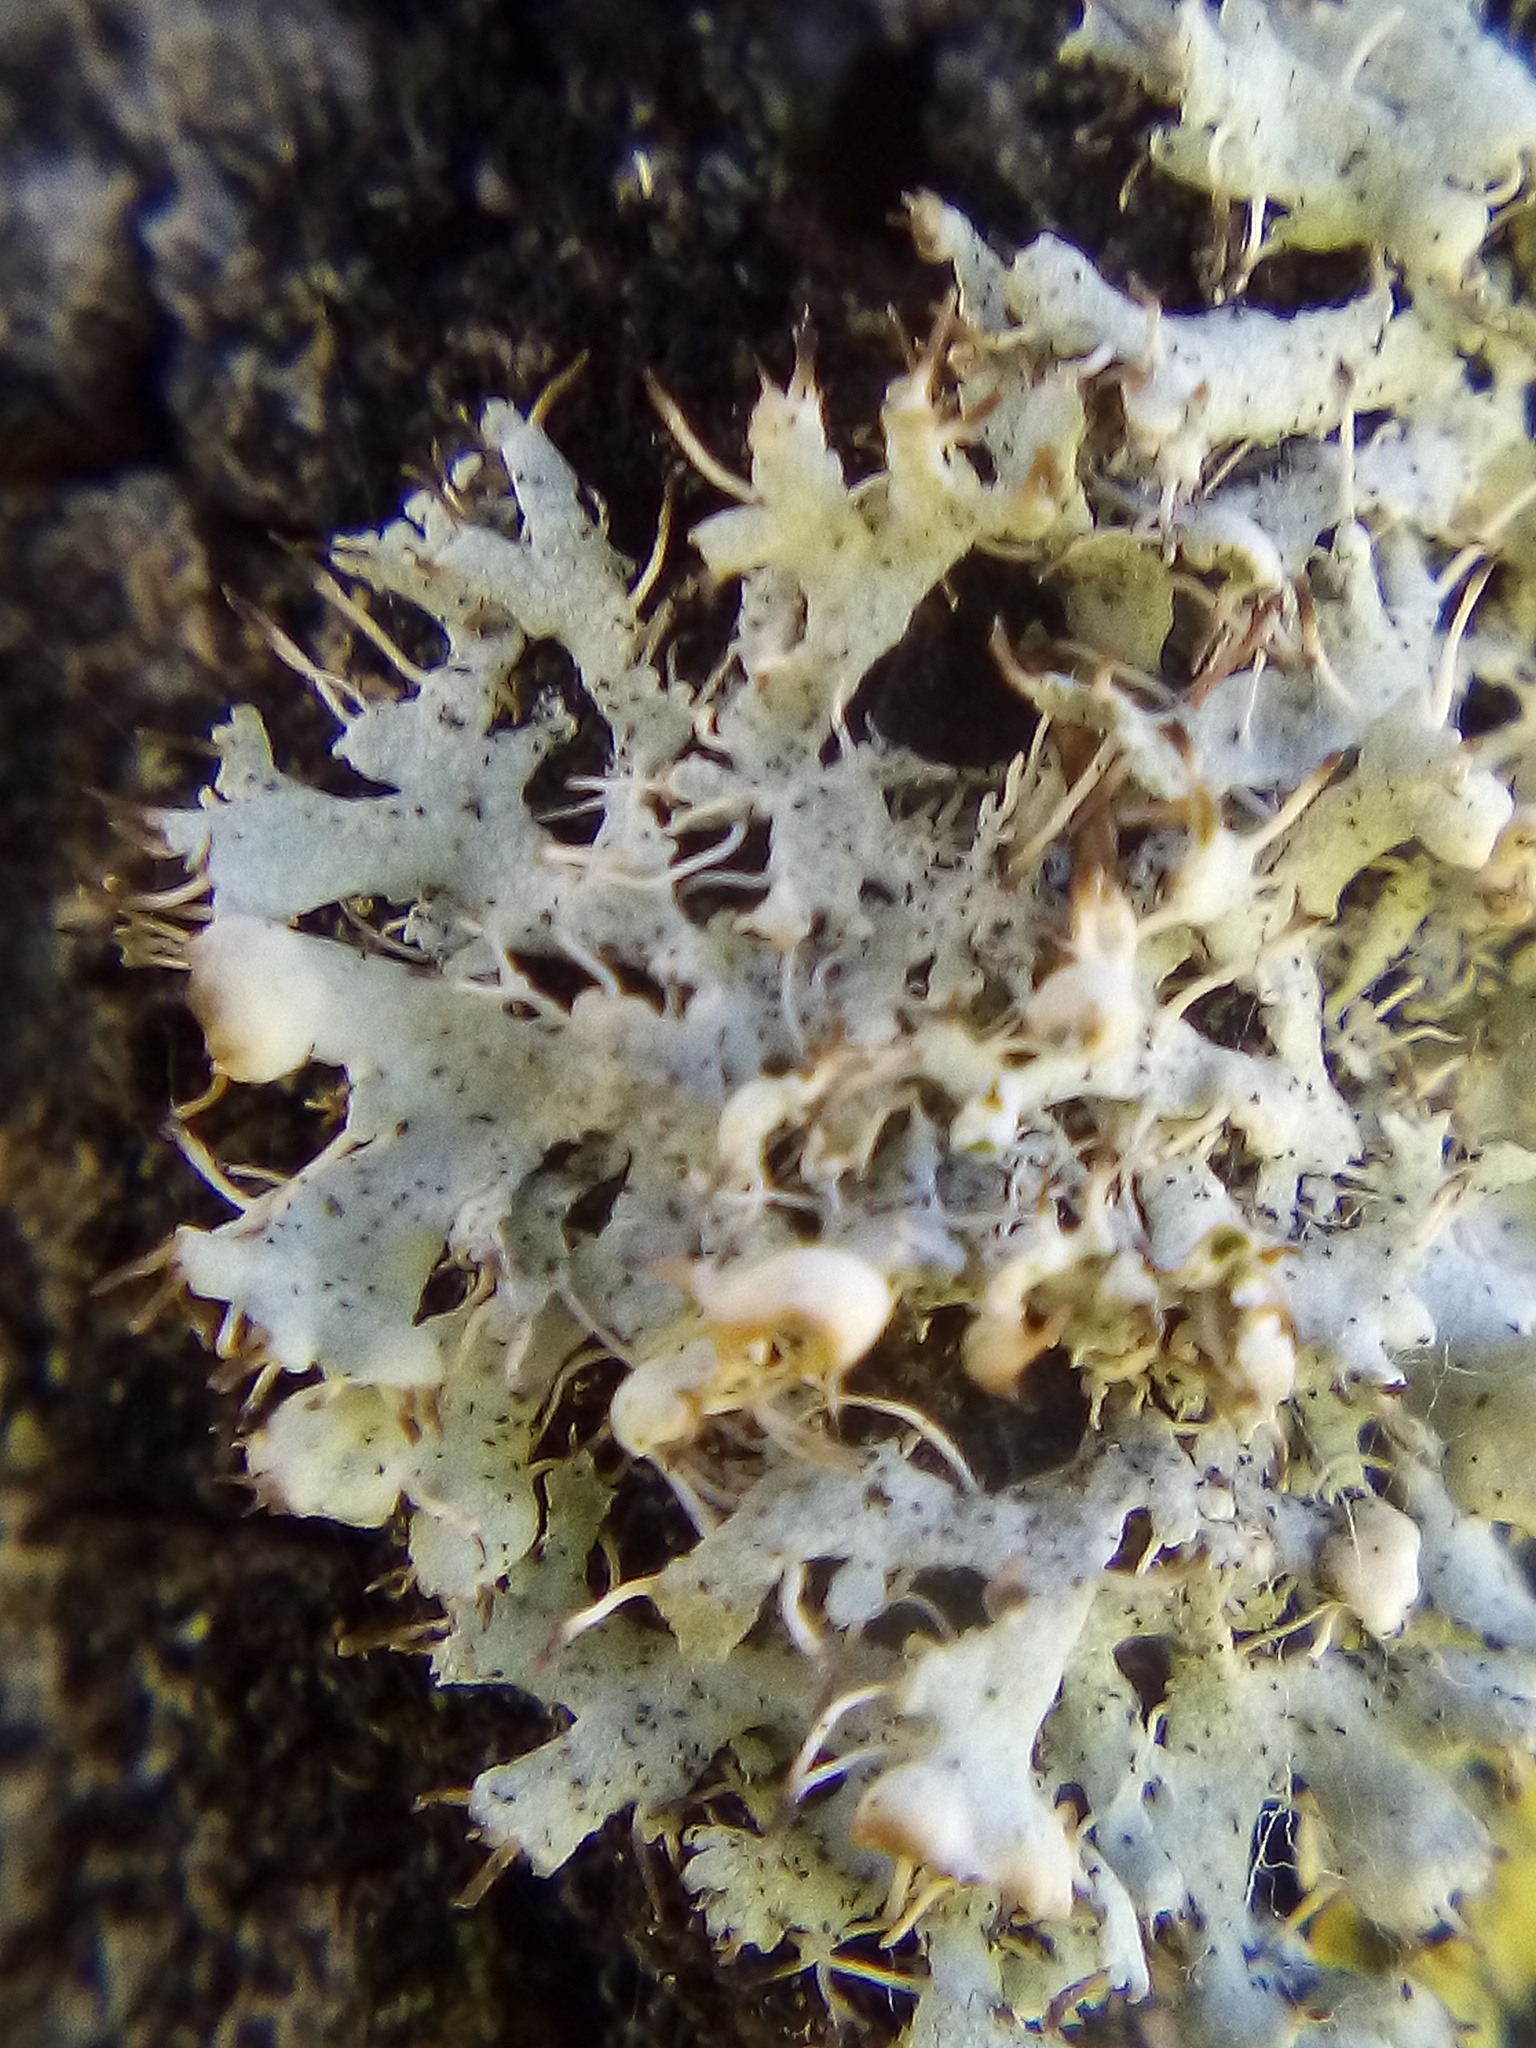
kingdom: Fungi
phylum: Ascomycota
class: Lecanoromycetes
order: Caliciales
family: Physciaceae
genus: Physcia
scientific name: Physcia adscendens
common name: Hooded rosette lichen
